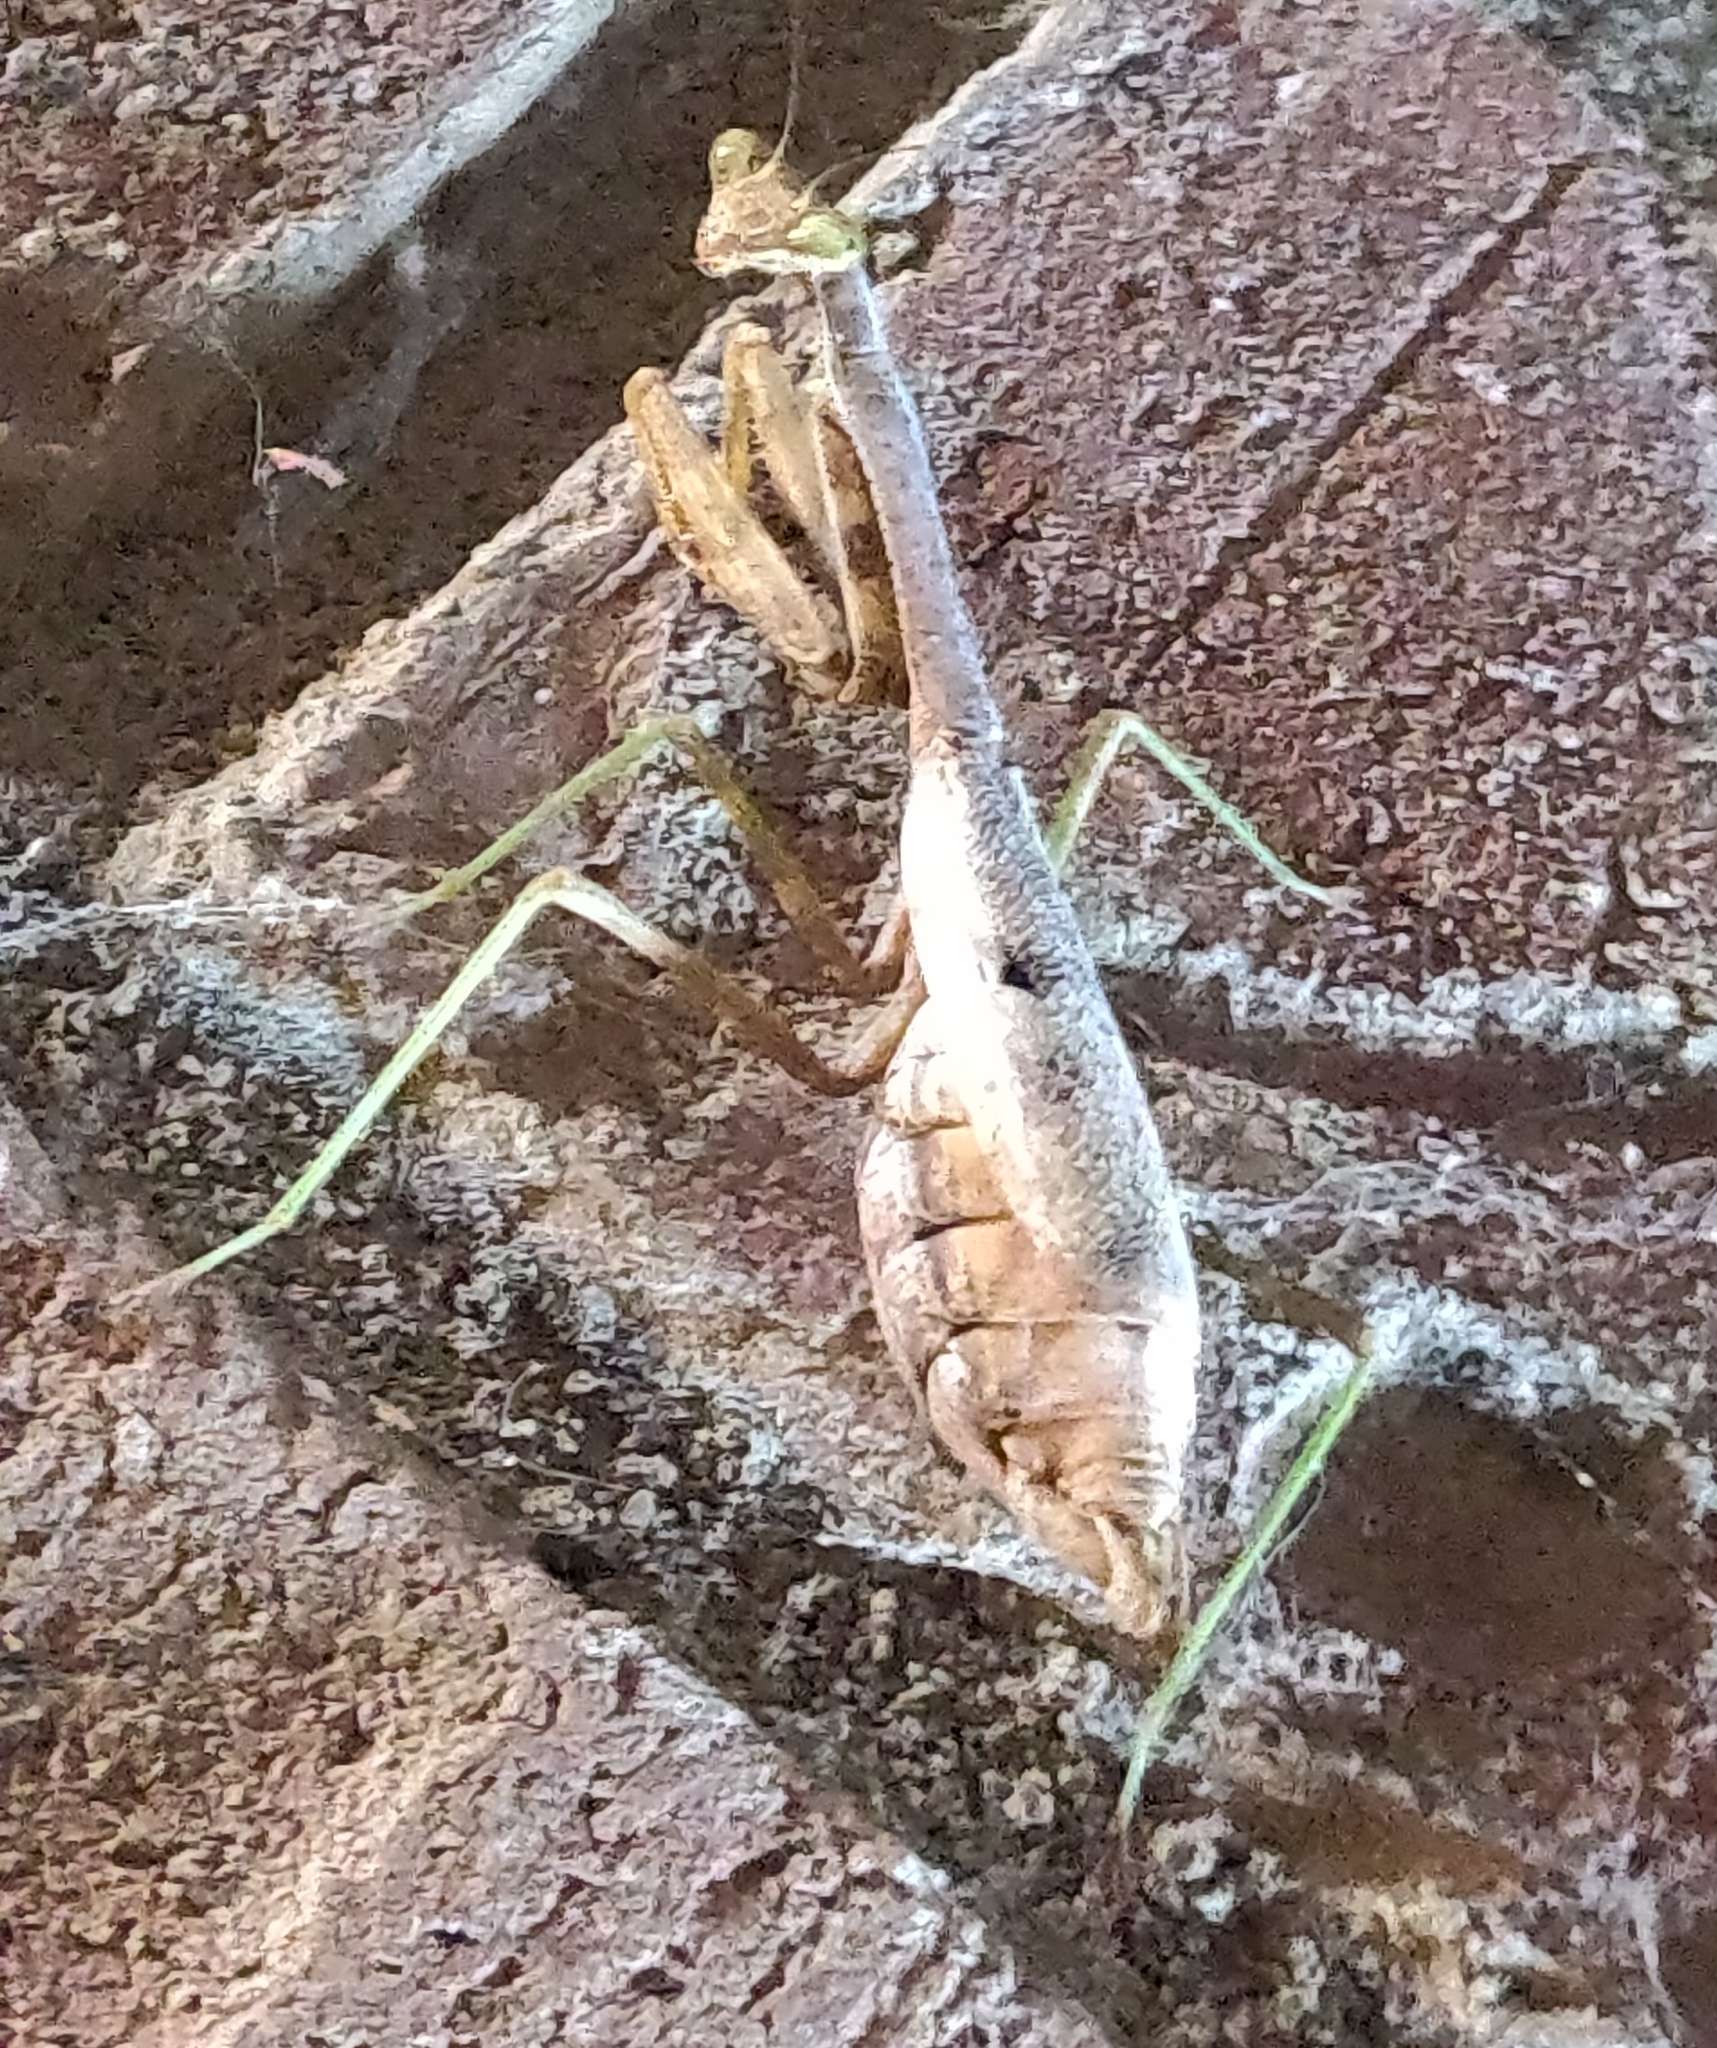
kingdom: Animalia
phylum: Arthropoda
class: Insecta
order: Mantodea
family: Mantidae
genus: Stagmomantis
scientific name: Stagmomantis carolina
